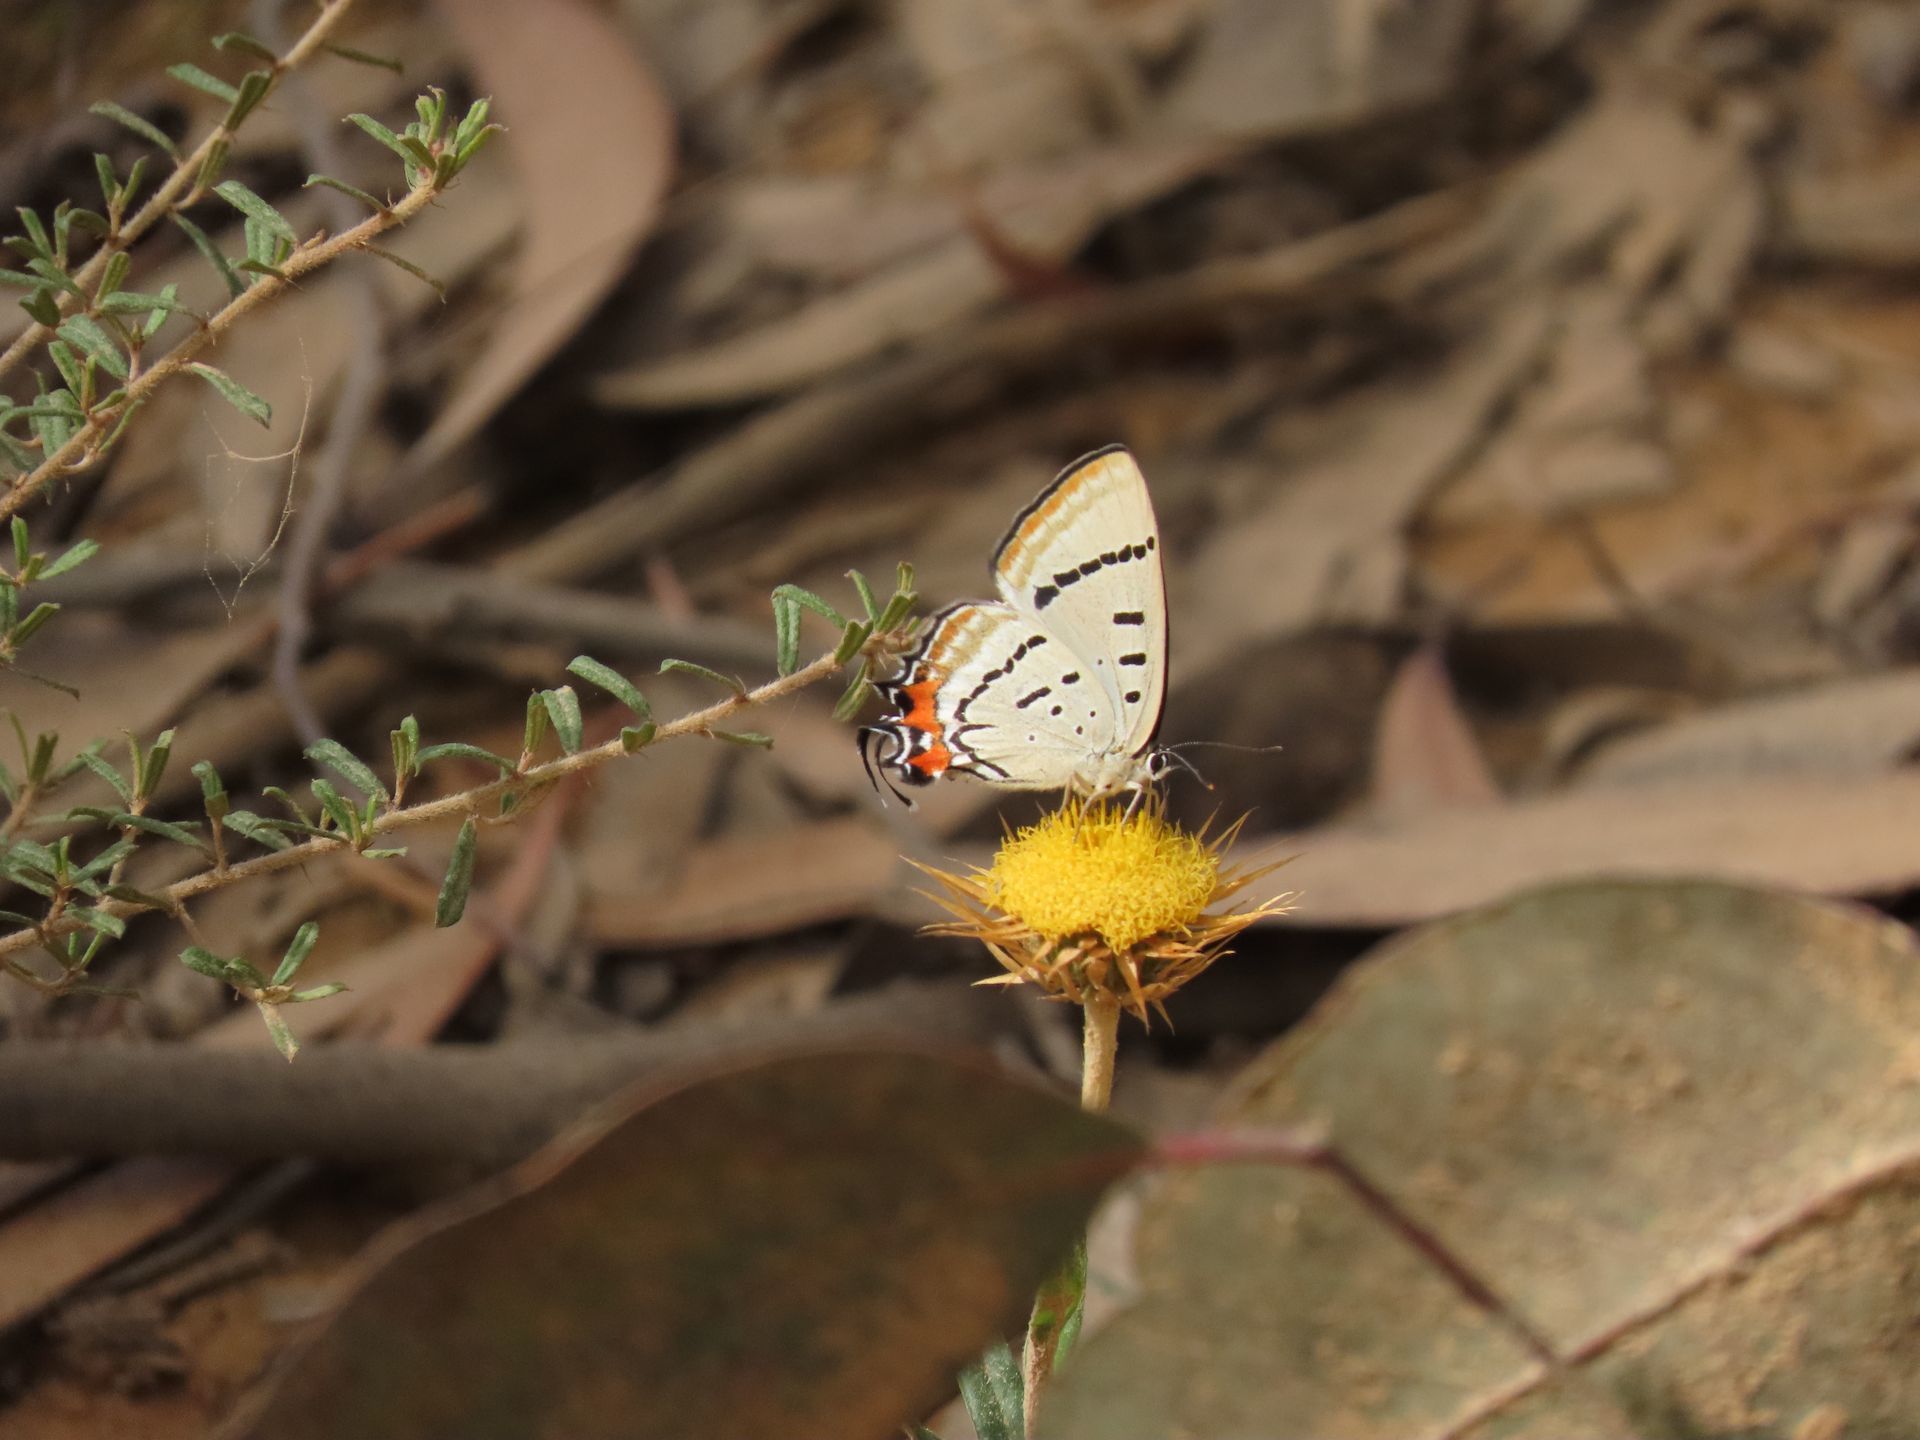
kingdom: Animalia
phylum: Arthropoda
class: Insecta
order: Lepidoptera
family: Lycaenidae
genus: Jalmenus
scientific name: Jalmenus evagoras
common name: Common imperial blue
